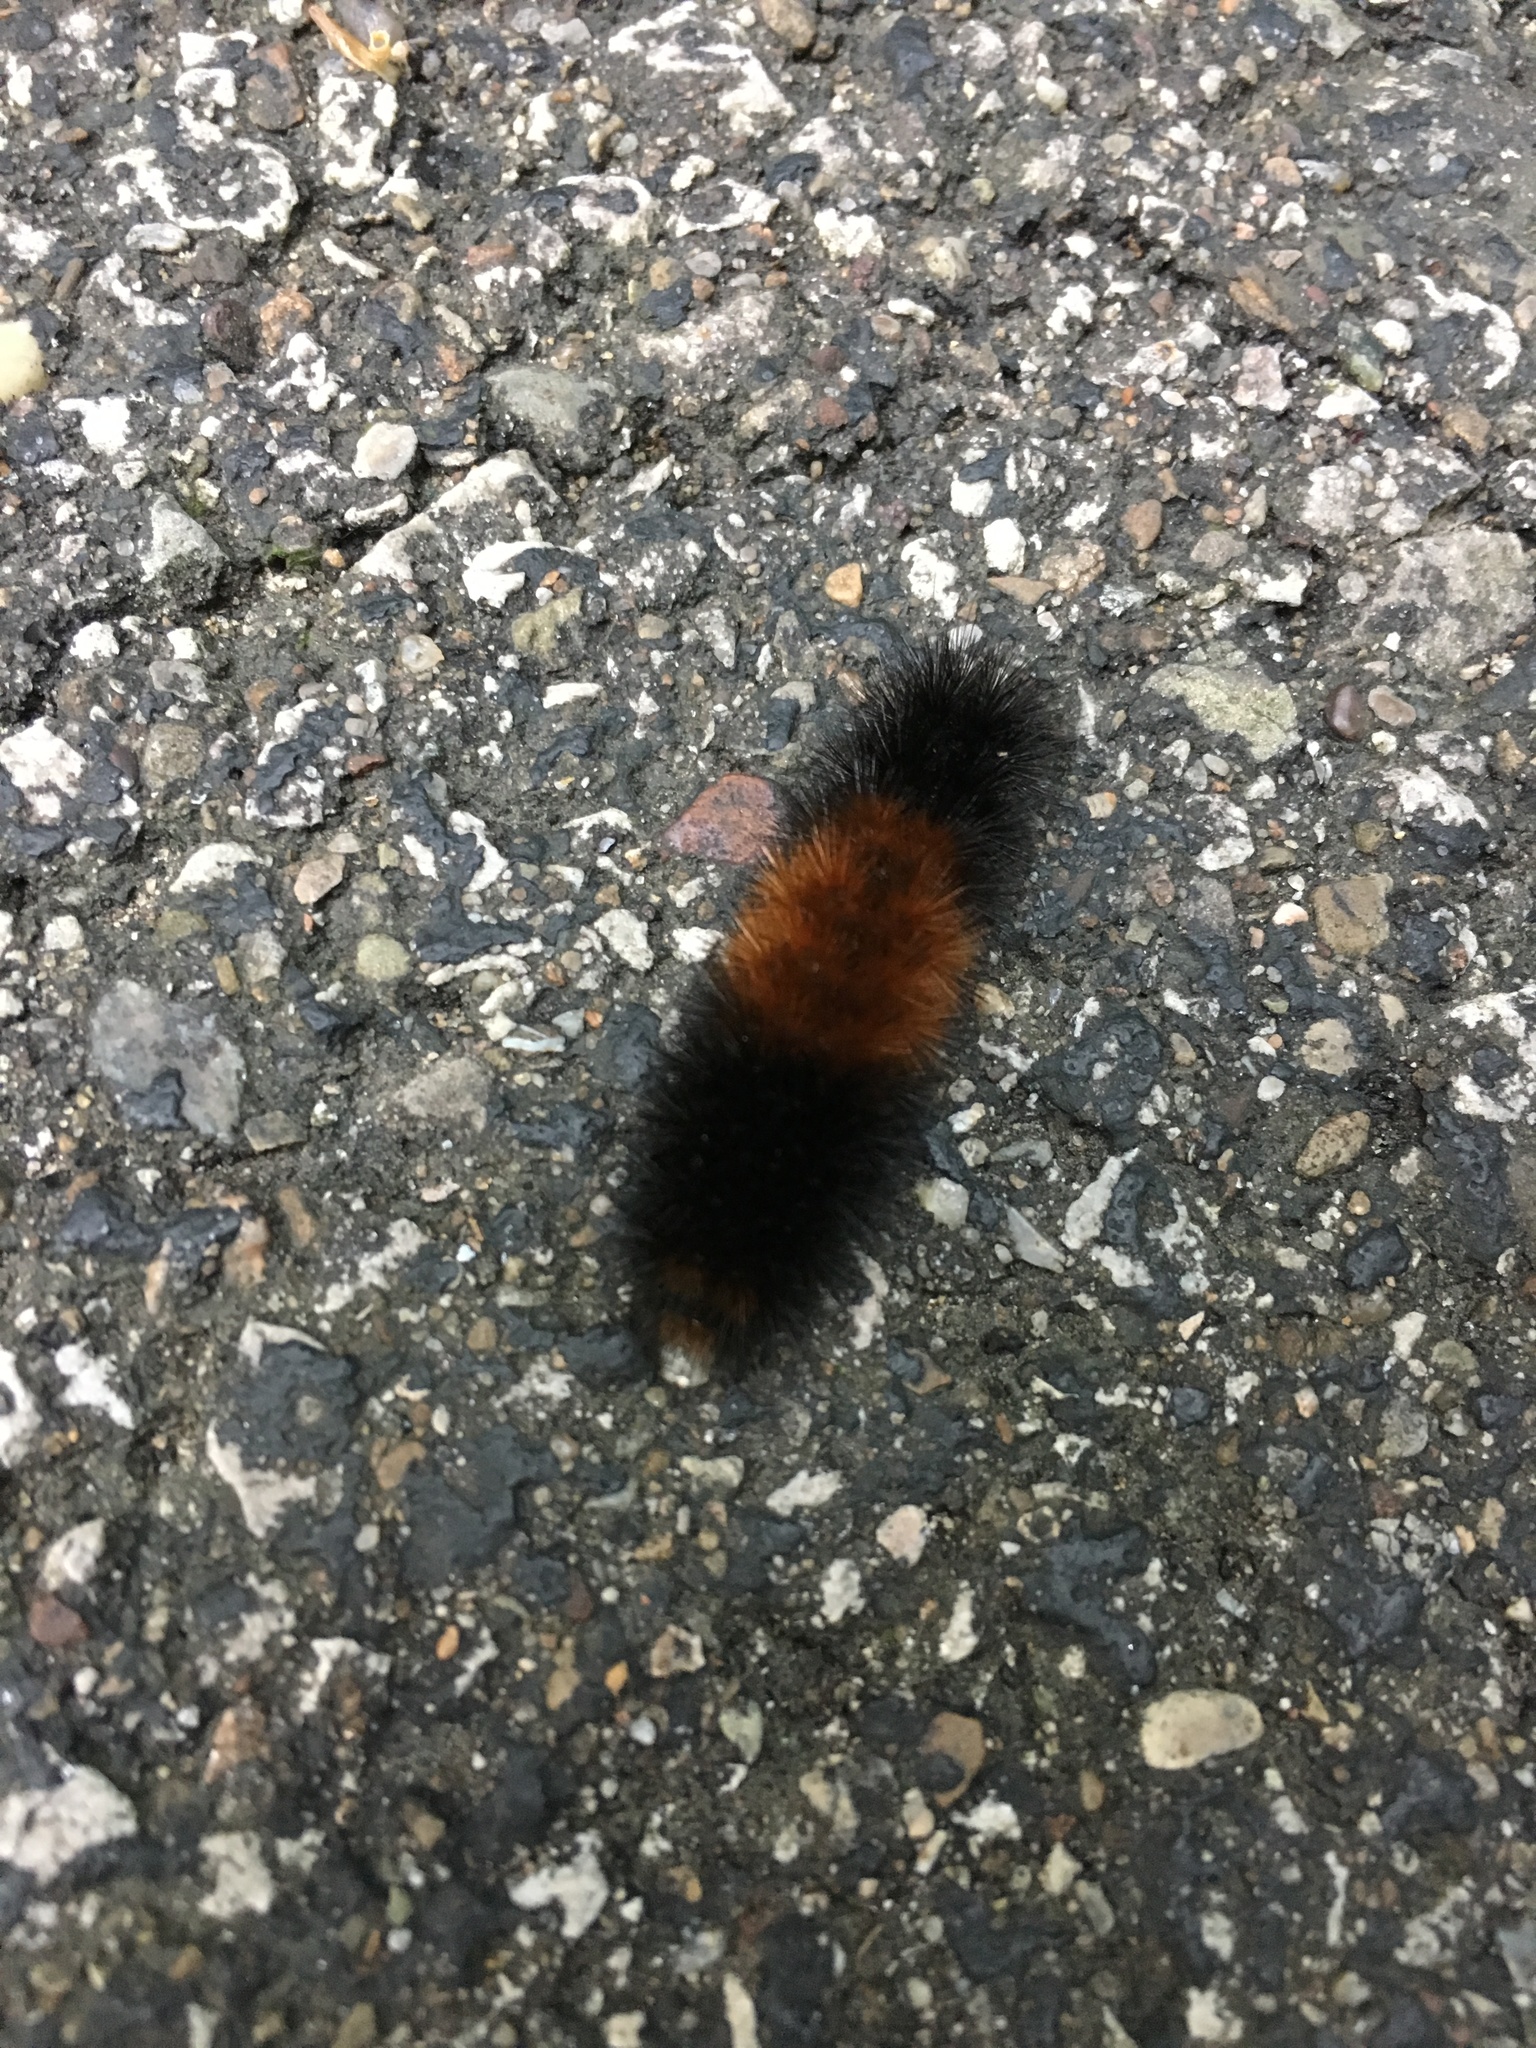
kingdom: Animalia
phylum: Arthropoda
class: Insecta
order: Lepidoptera
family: Erebidae
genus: Pyrrharctia
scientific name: Pyrrharctia isabella
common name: Isabella tiger moth
